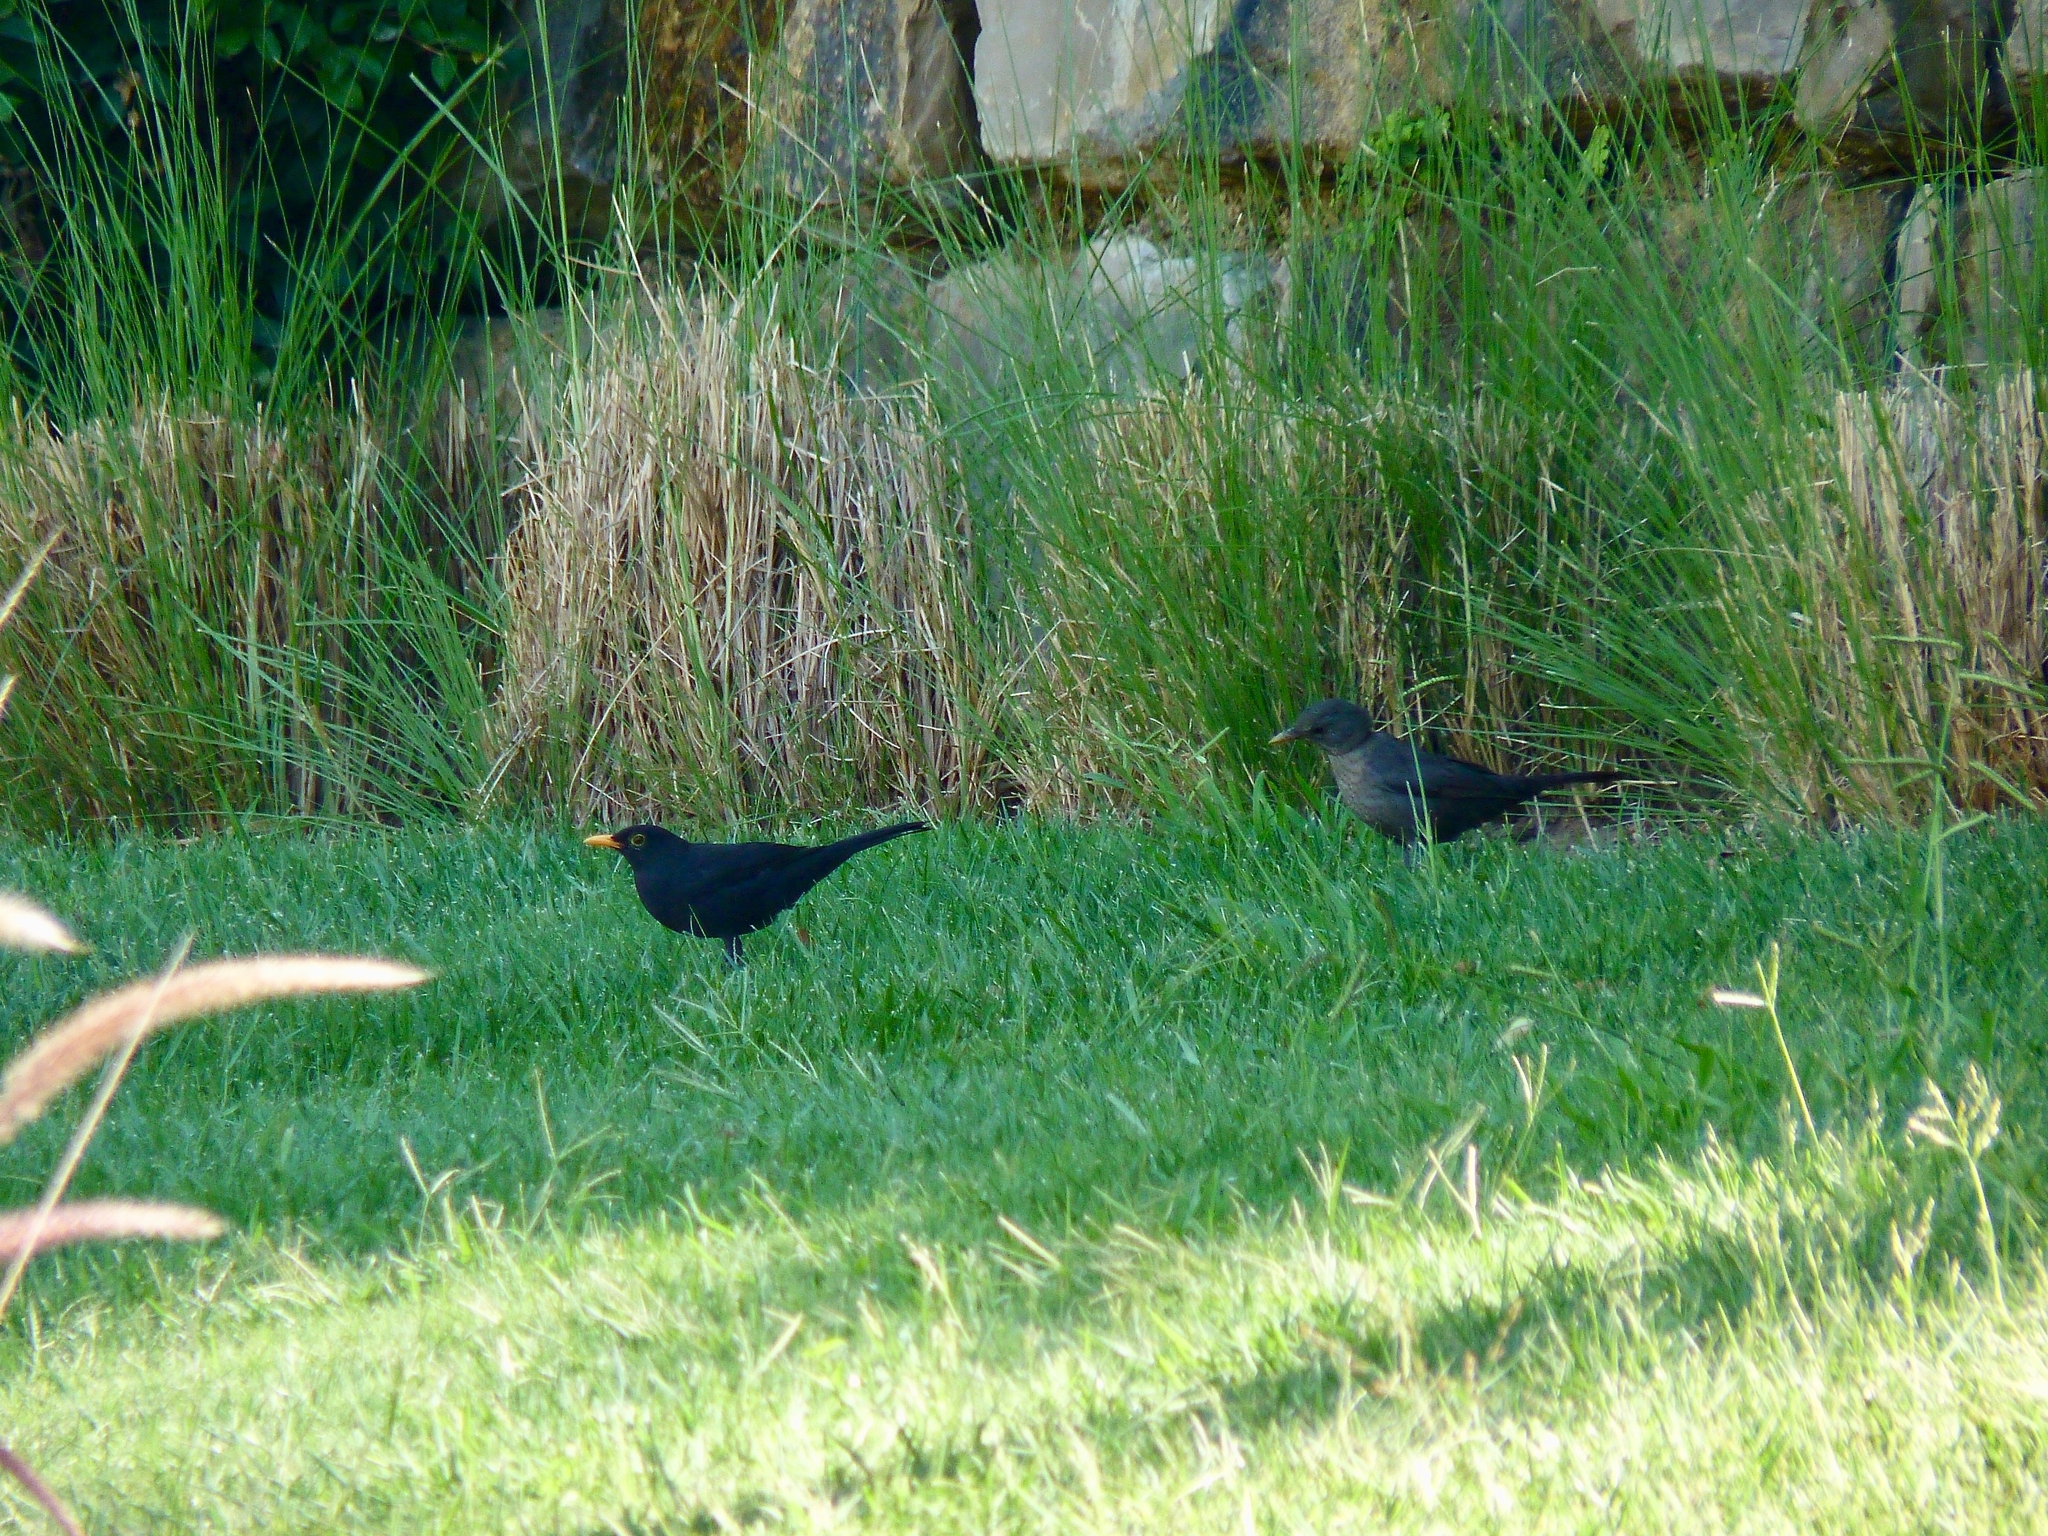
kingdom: Animalia
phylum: Chordata
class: Aves
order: Passeriformes
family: Turdidae
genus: Turdus
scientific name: Turdus merula
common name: Common blackbird
